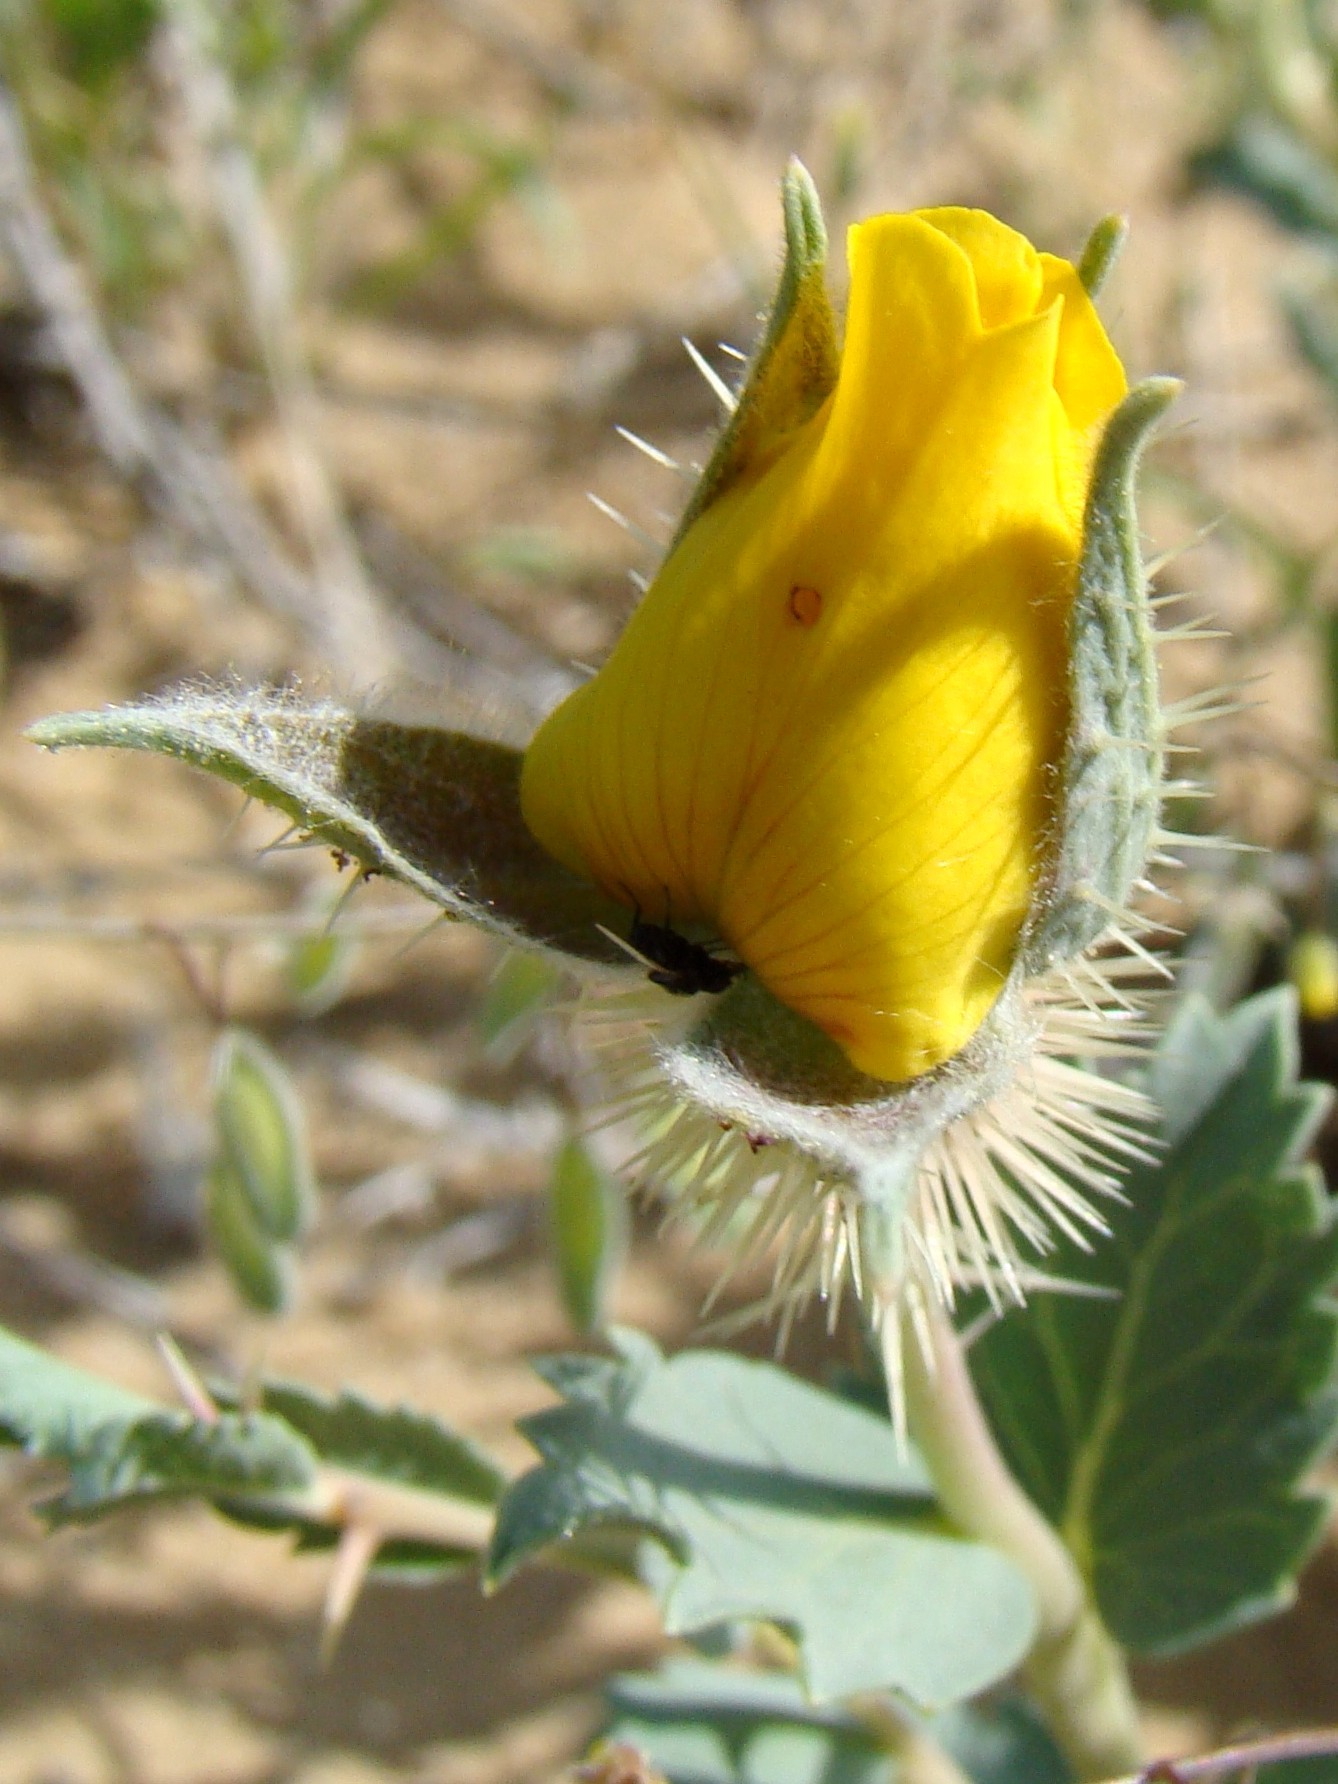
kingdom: Plantae
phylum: Tracheophyta
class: Magnoliopsida
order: Rosales
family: Rosaceae
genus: Rosa
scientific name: Rosa persica
